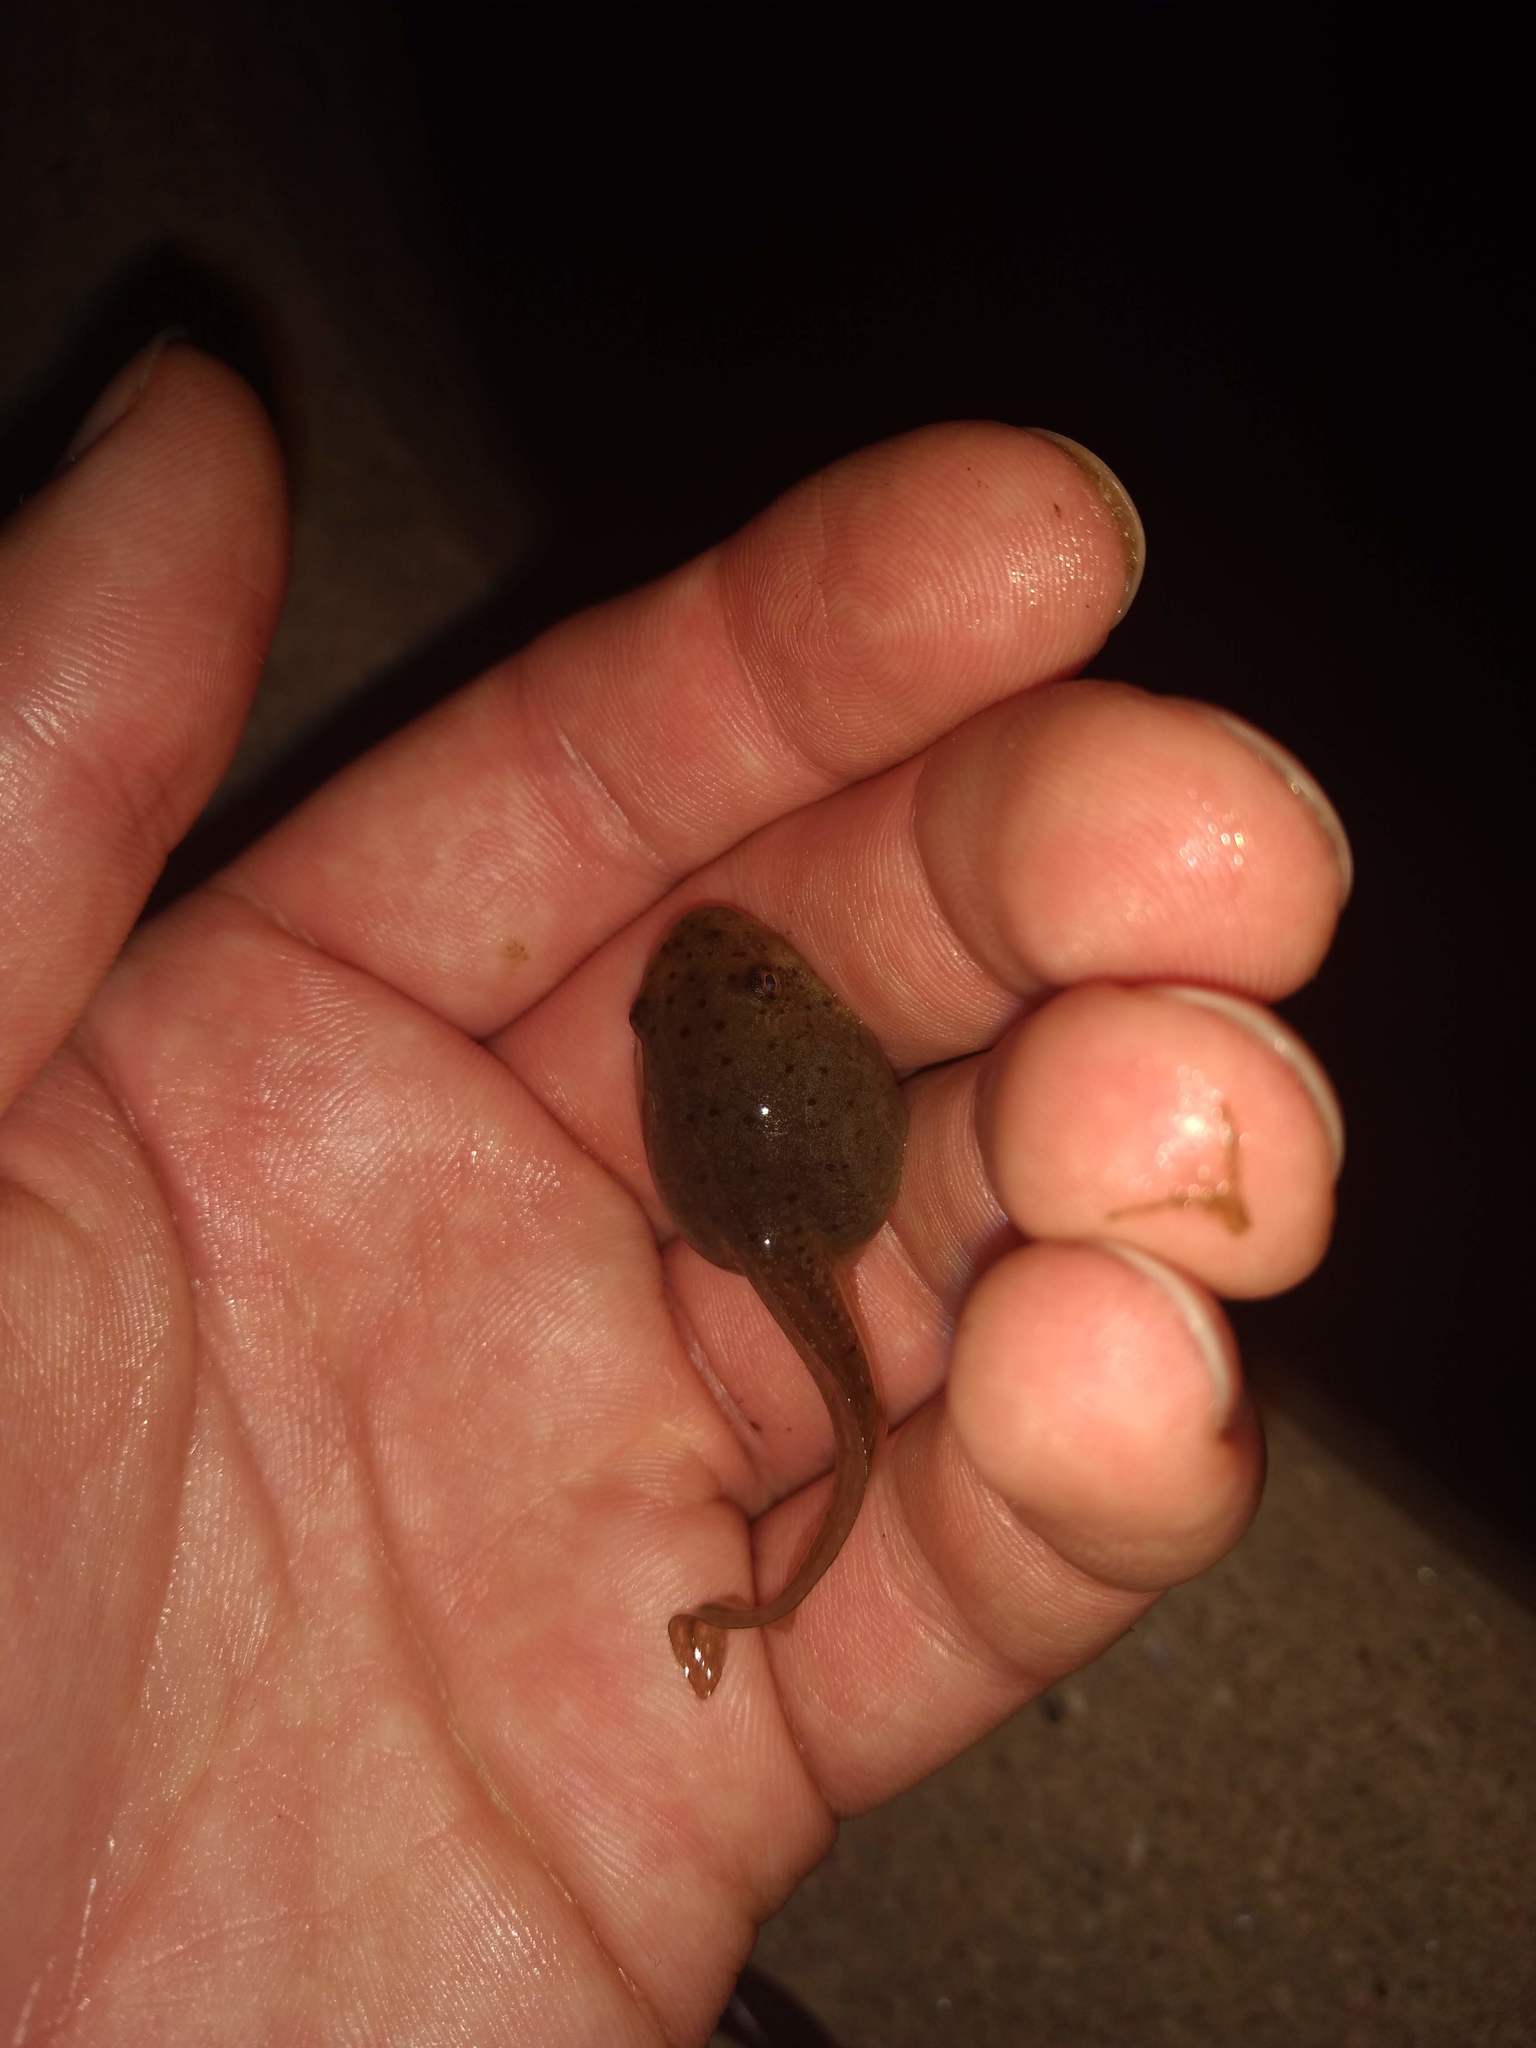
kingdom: Animalia
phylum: Chordata
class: Amphibia
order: Anura
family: Ranidae
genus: Lithobates
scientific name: Lithobates catesbeianus
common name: American bullfrog
